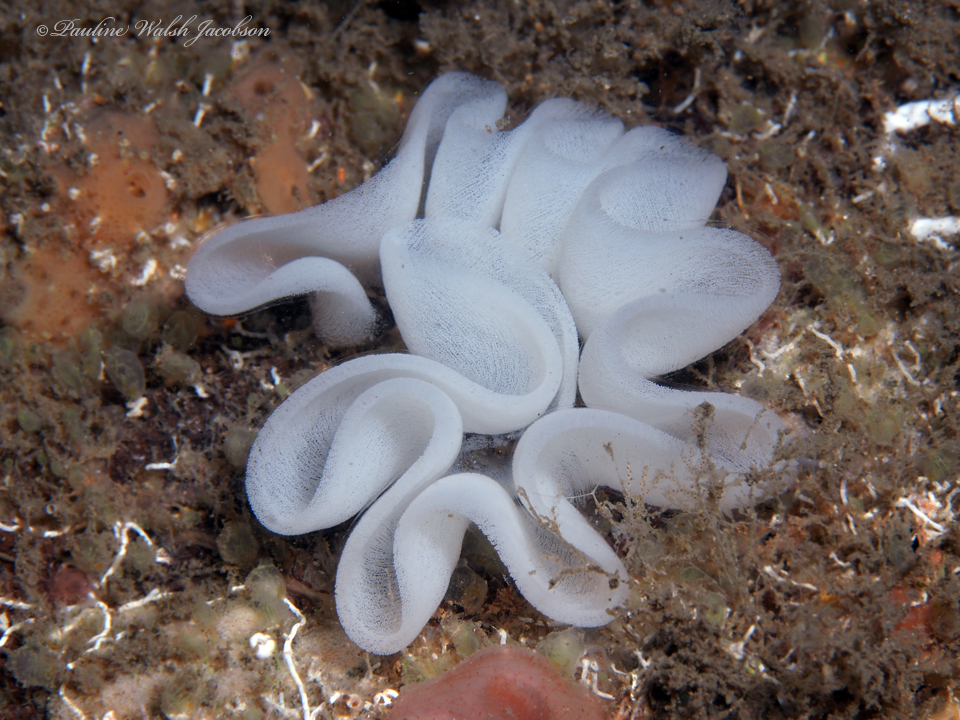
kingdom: Animalia
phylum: Mollusca
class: Gastropoda
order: Pleurobranchida
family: Pleurobranchidae
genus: Pleurobranchus
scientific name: Pleurobranchus areolatus
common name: Atlantic sidegill slug
